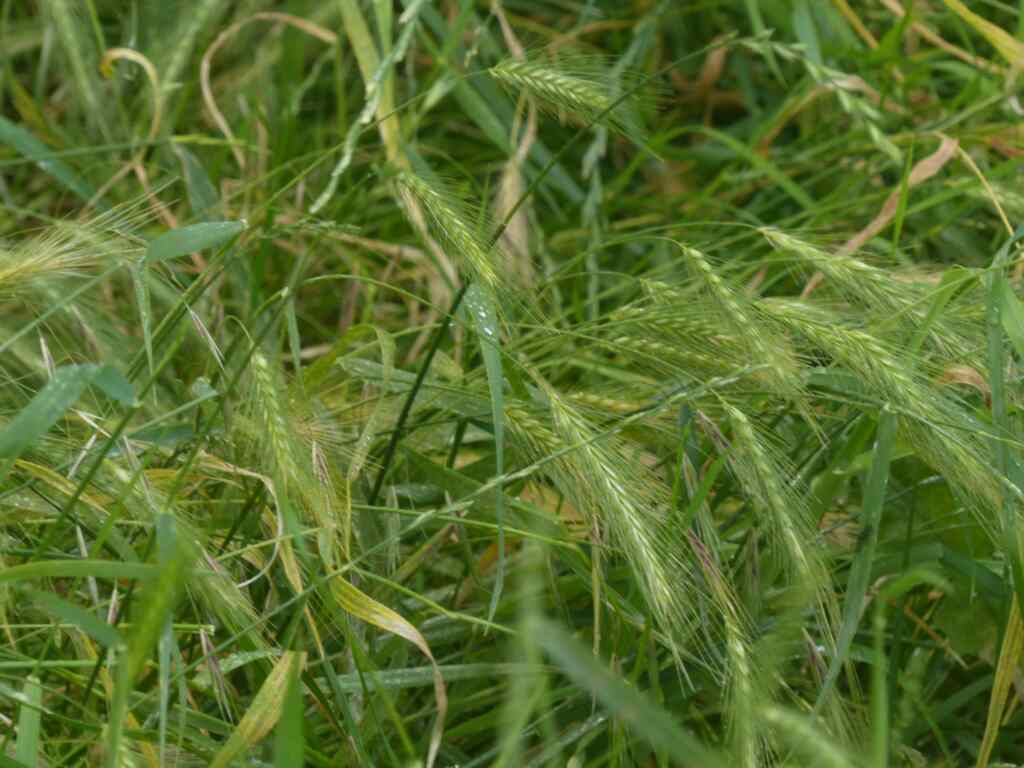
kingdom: Plantae
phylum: Tracheophyta
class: Liliopsida
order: Poales
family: Poaceae
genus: Hordeum
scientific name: Hordeum murinum
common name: Wall barley
